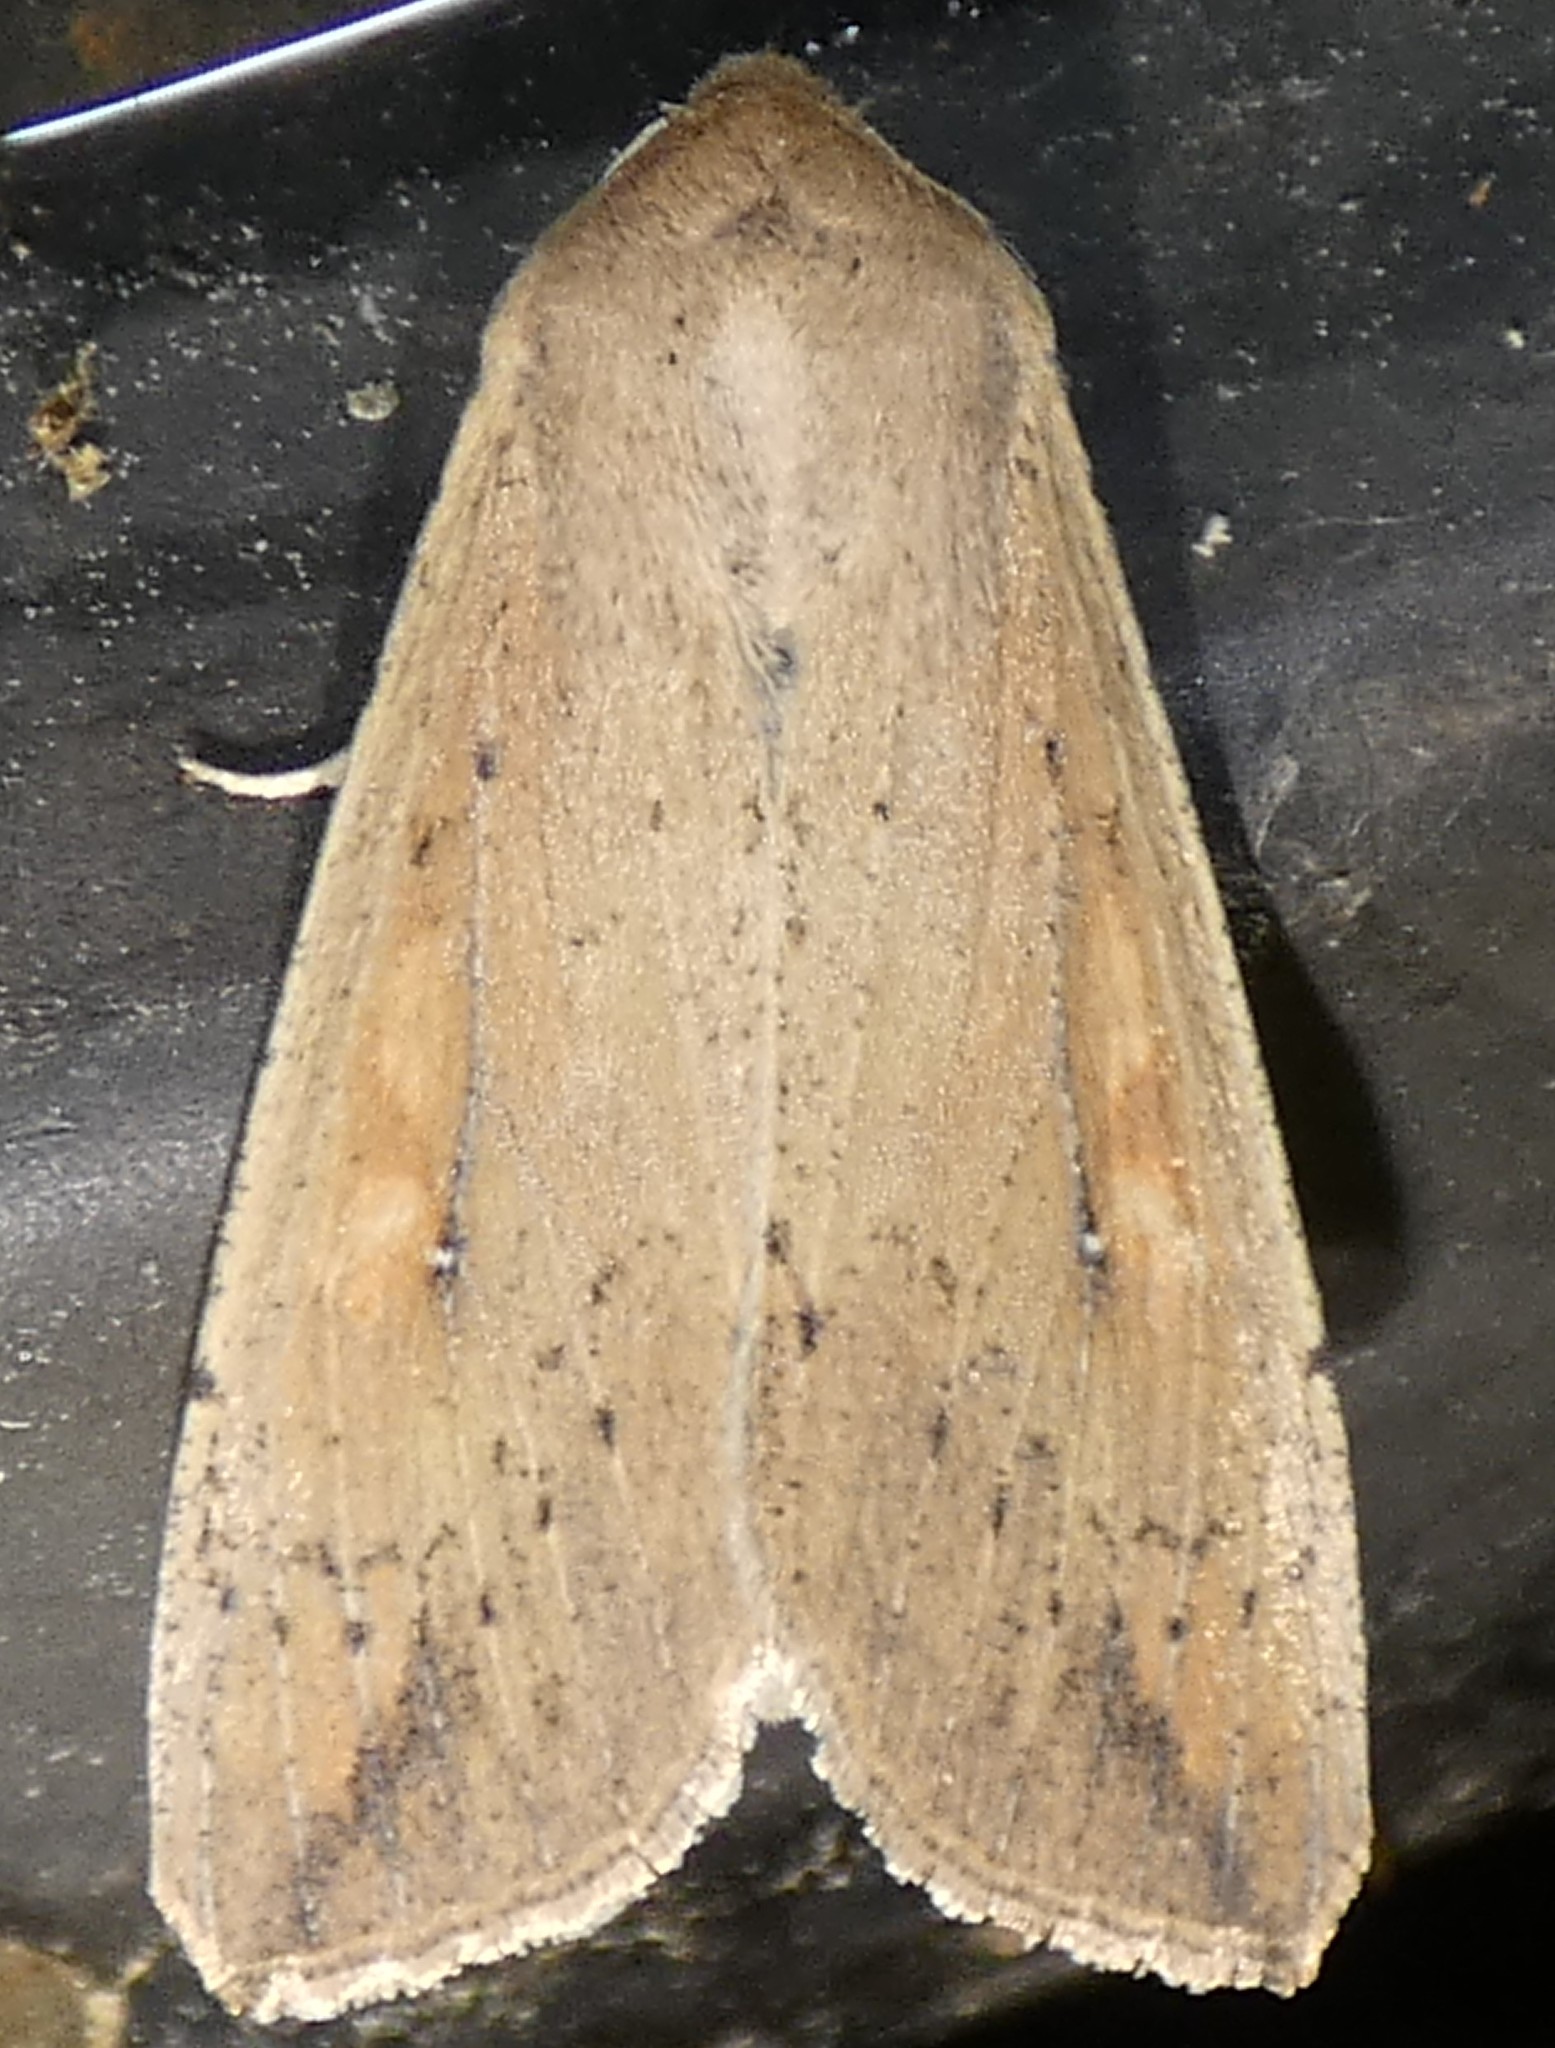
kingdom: Animalia
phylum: Arthropoda
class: Insecta
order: Lepidoptera
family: Noctuidae
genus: Mythimna
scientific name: Mythimna unipuncta
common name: White-speck
